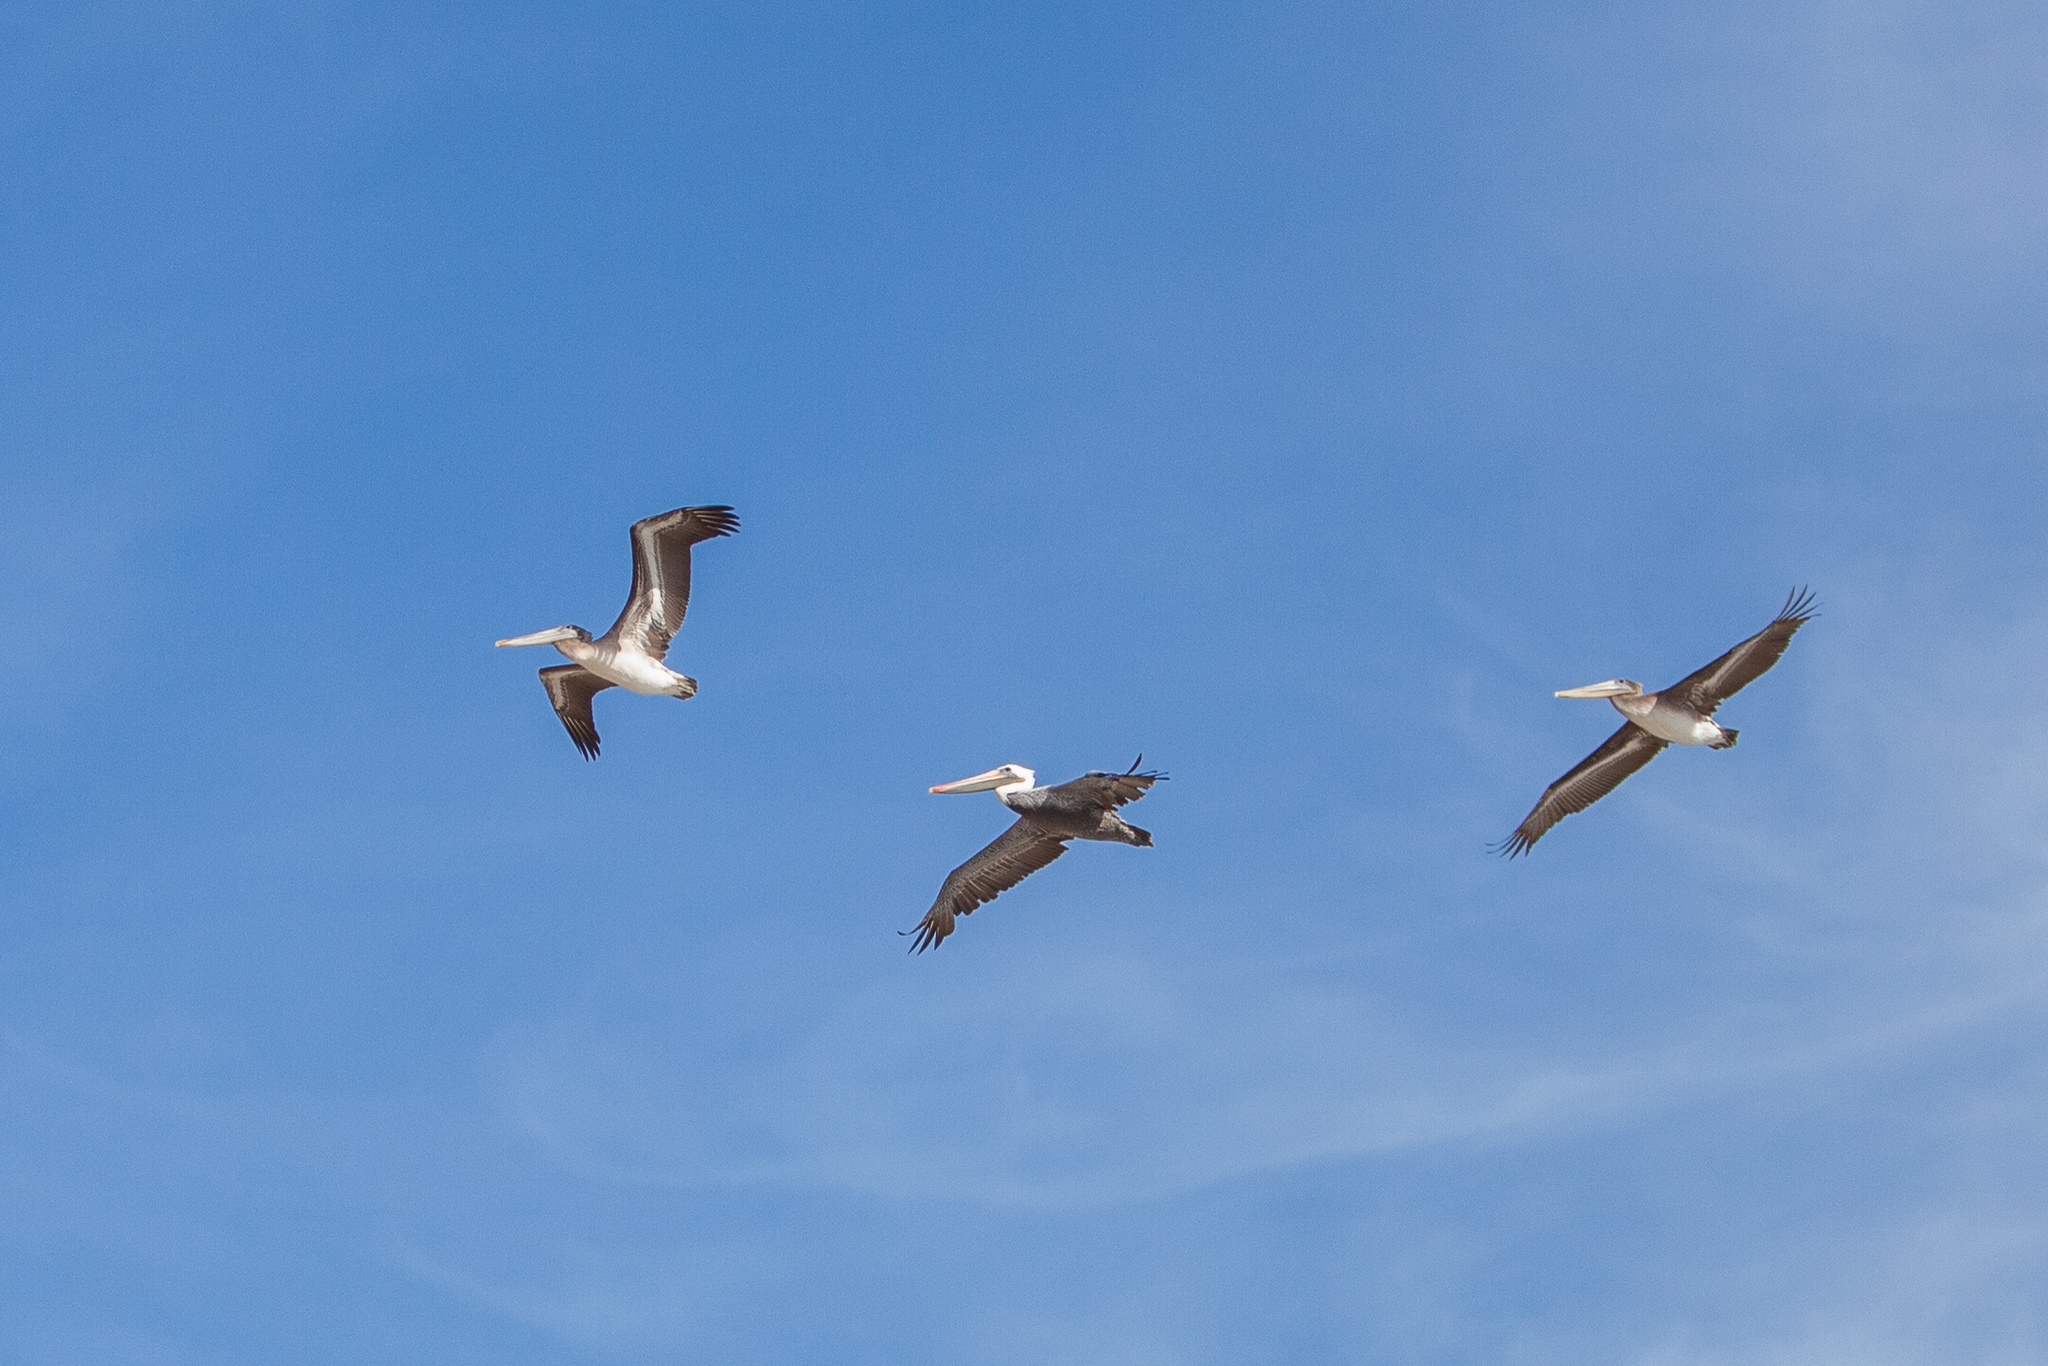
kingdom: Animalia
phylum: Chordata
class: Aves
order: Pelecaniformes
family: Pelecanidae
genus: Pelecanus
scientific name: Pelecanus occidentalis
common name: Brown pelican
